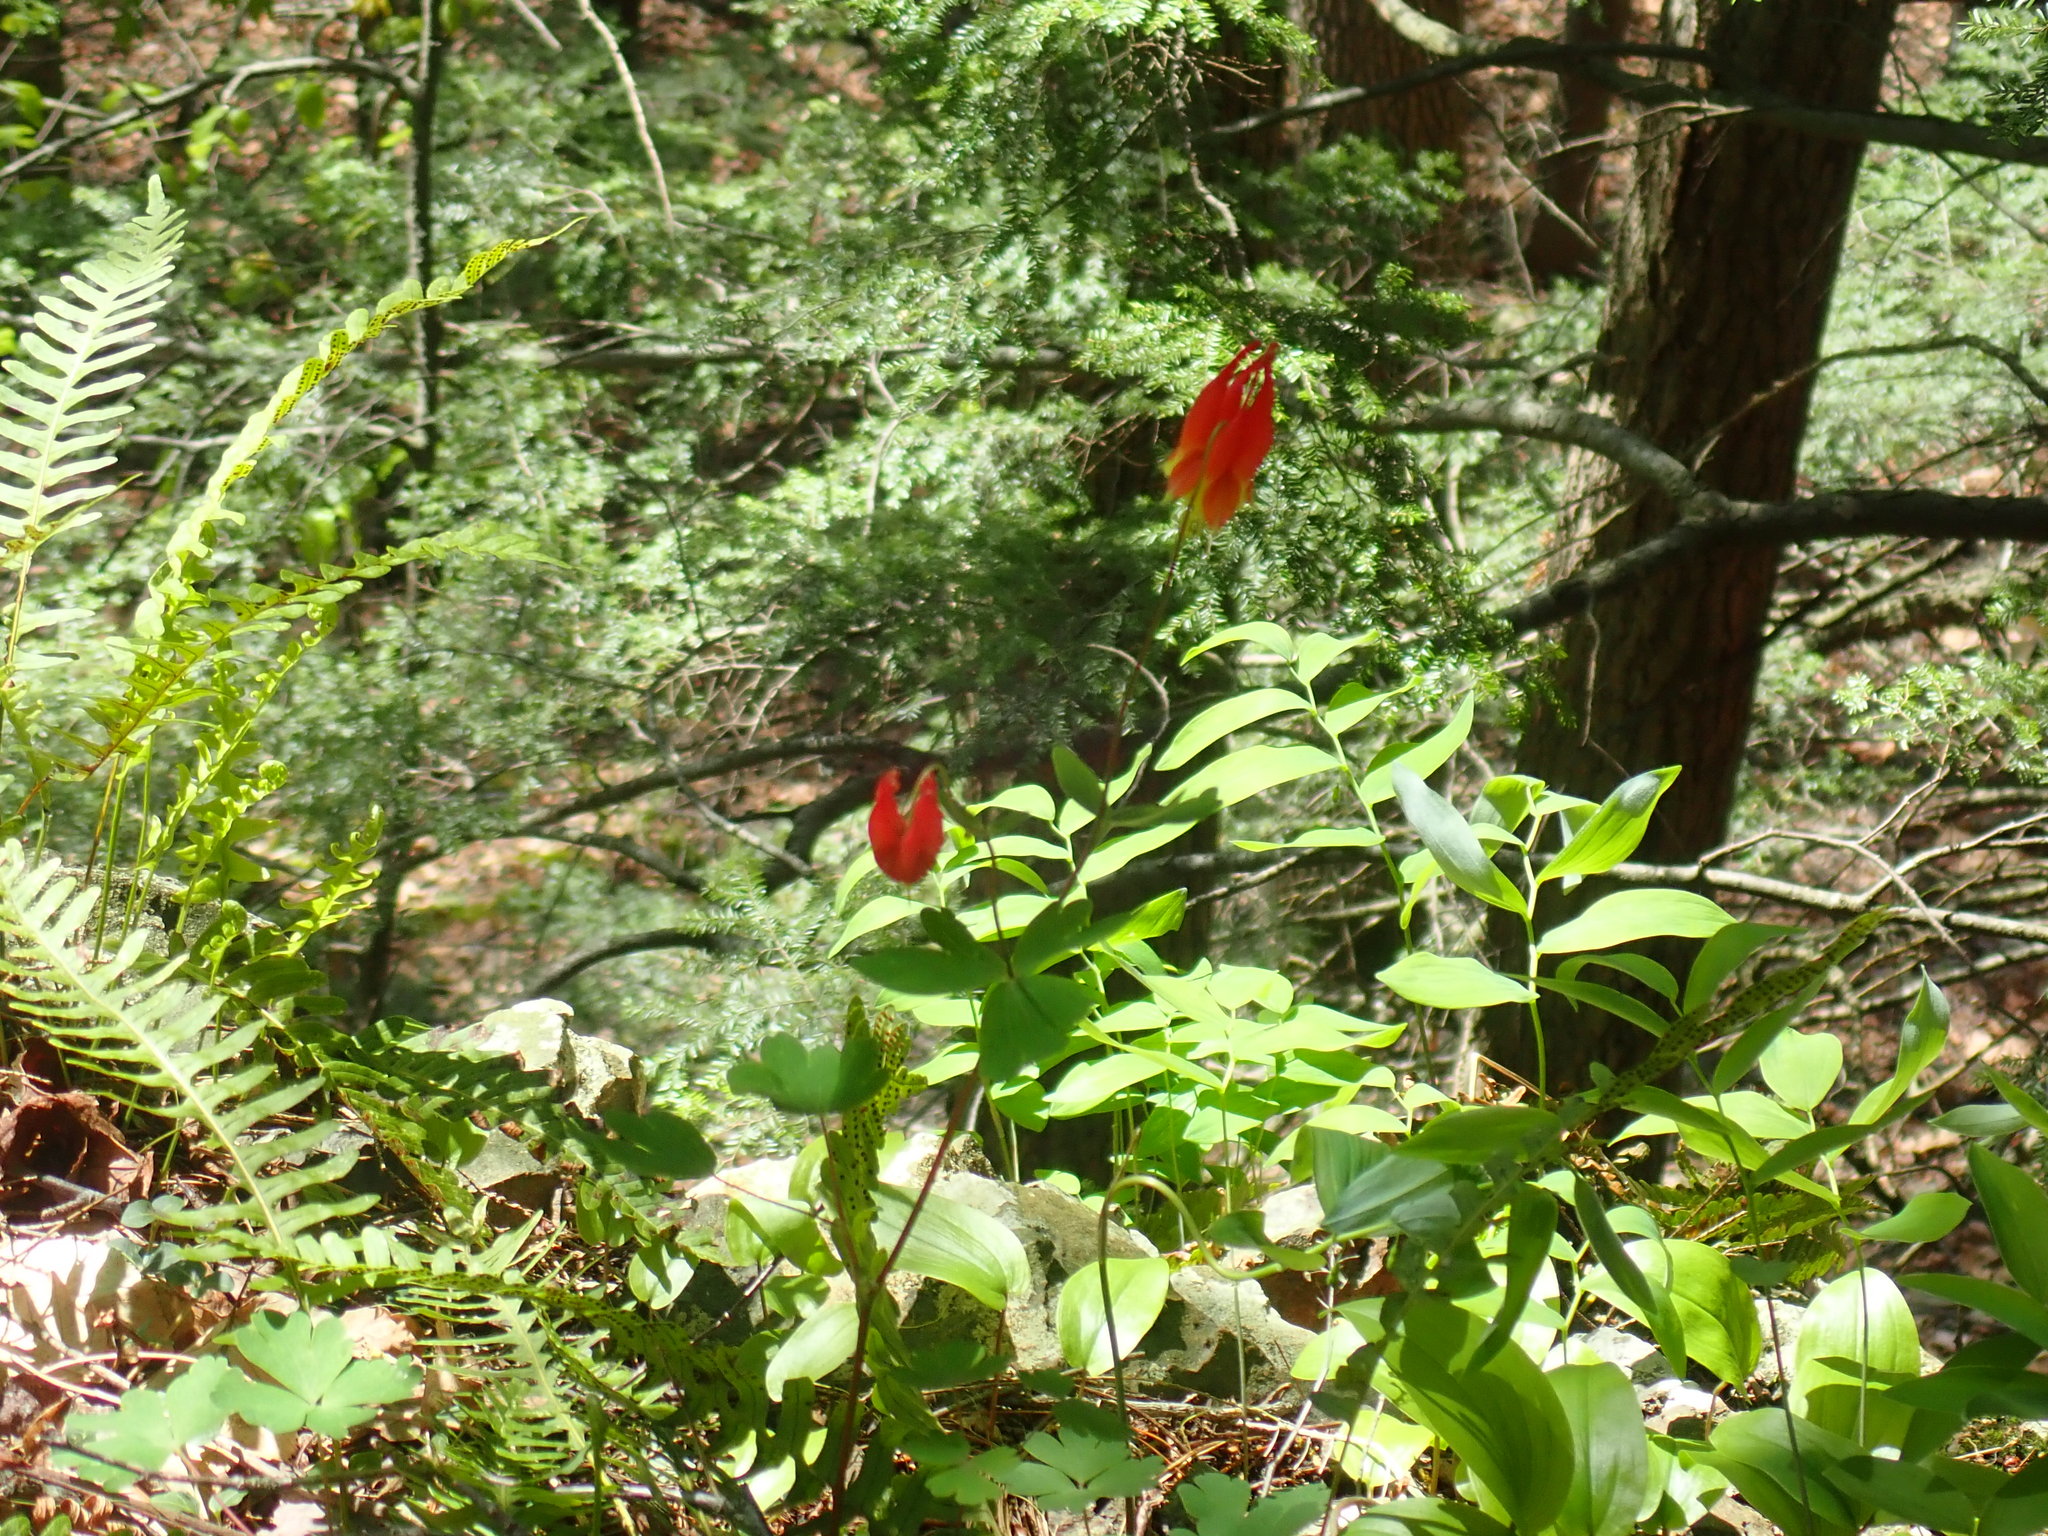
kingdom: Plantae
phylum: Tracheophyta
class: Magnoliopsida
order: Ranunculales
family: Ranunculaceae
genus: Aquilegia
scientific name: Aquilegia canadensis
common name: American columbine
